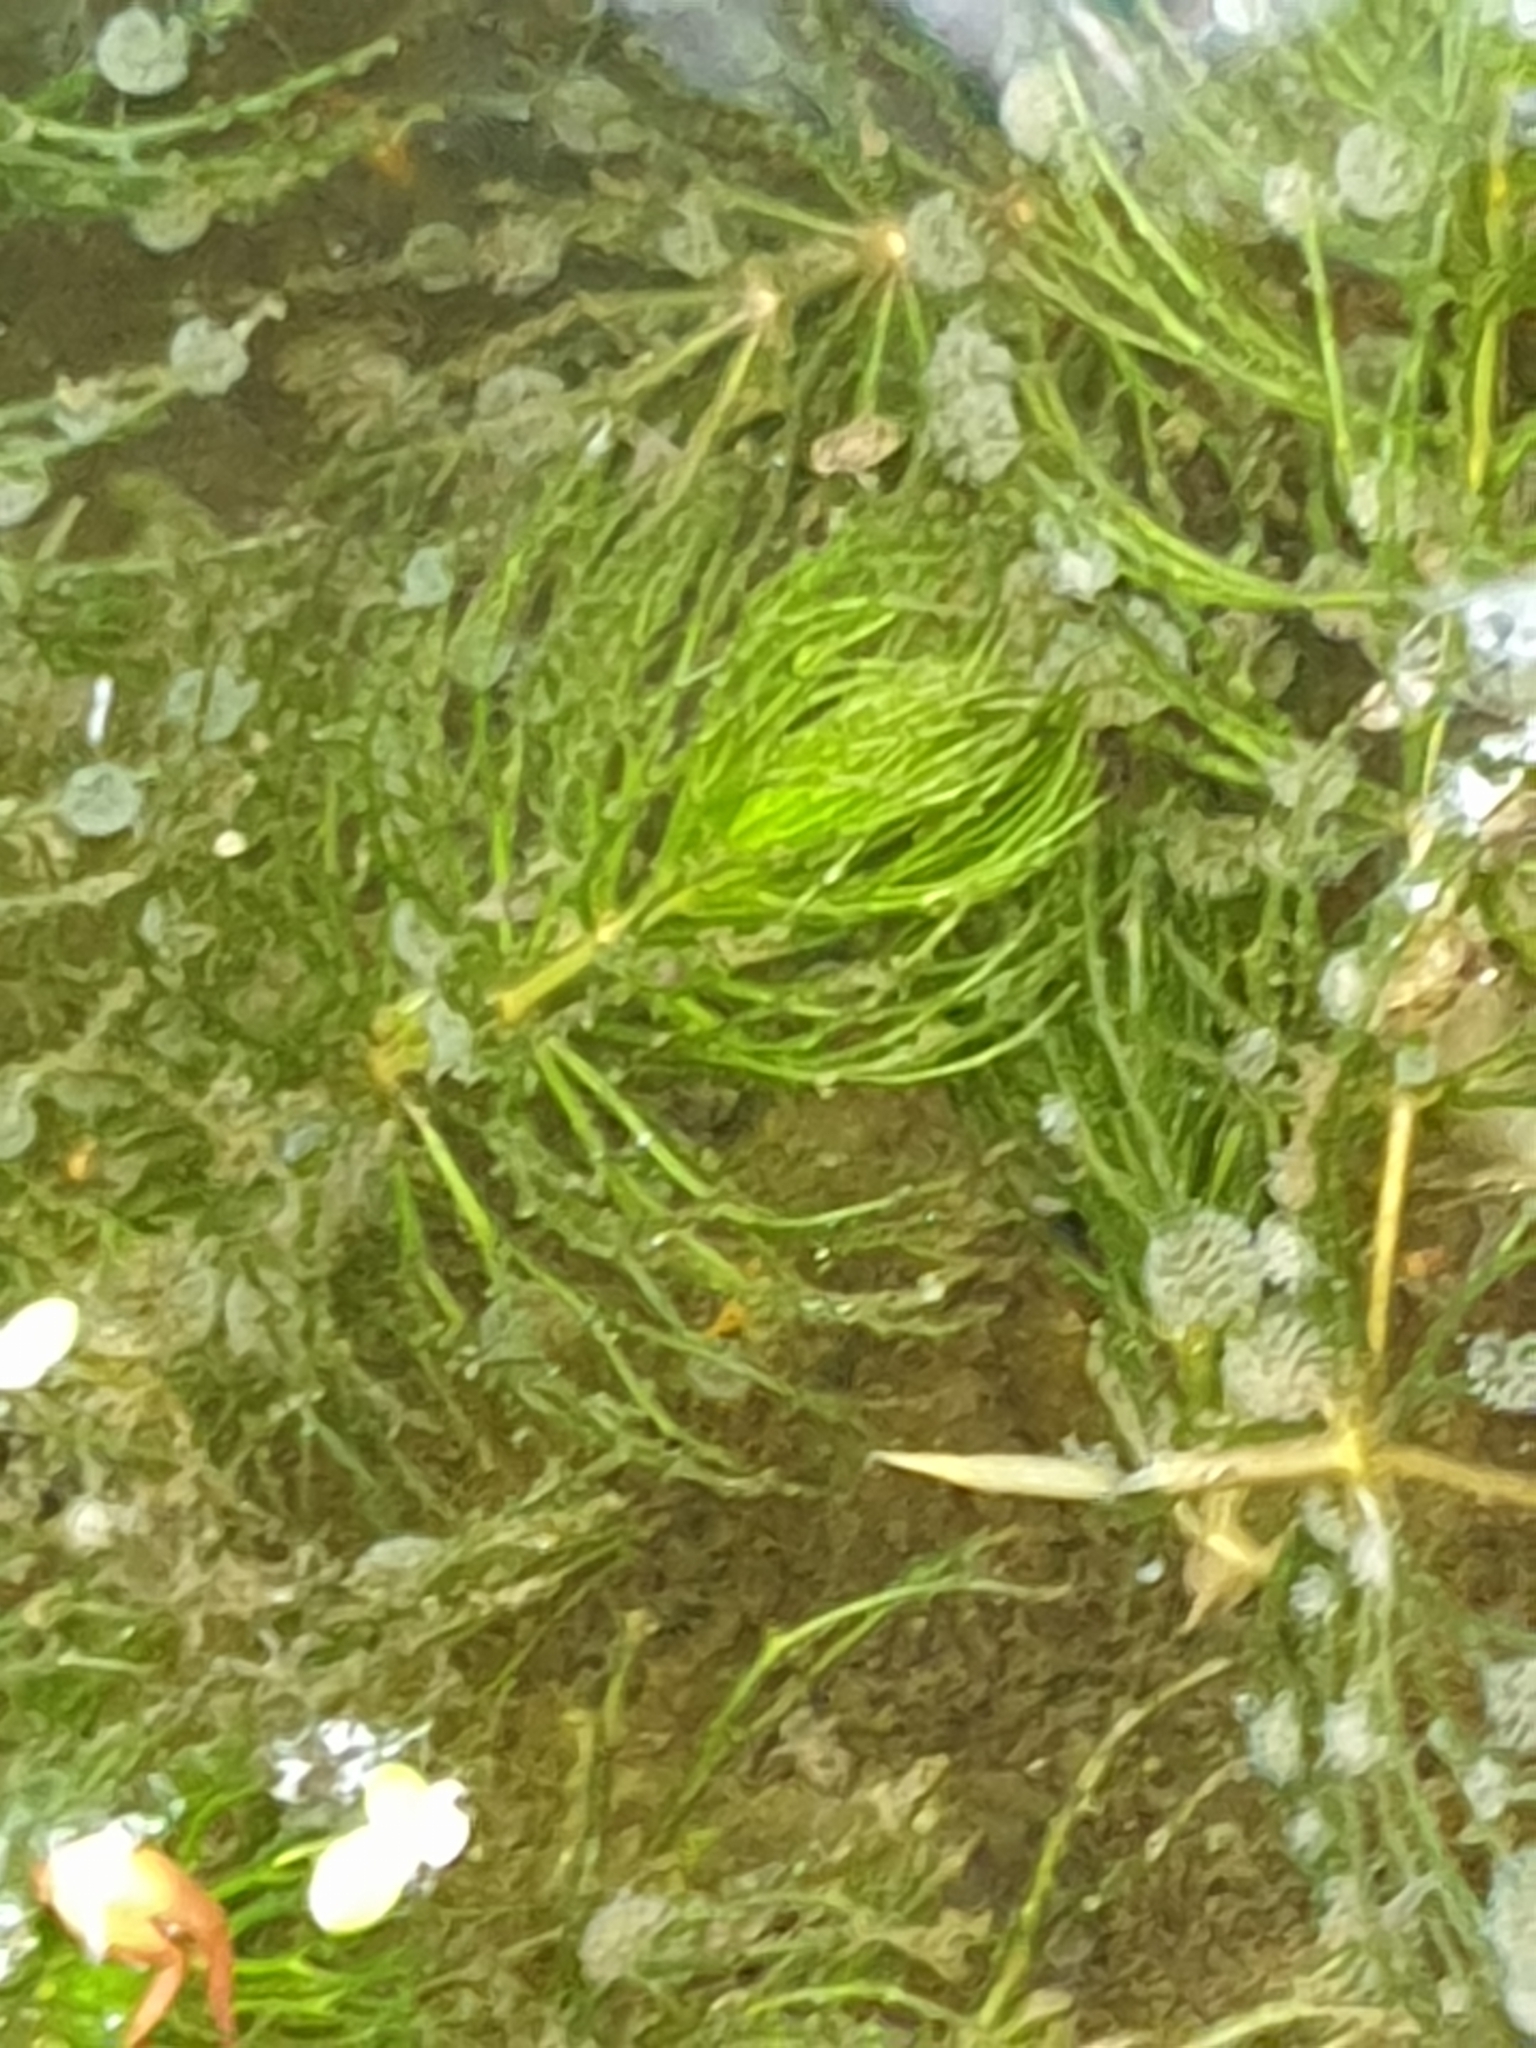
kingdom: Plantae
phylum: Tracheophyta
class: Magnoliopsida
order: Ceratophyllales
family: Ceratophyllaceae
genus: Ceratophyllum
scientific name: Ceratophyllum demersum
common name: Rigid hornwort
